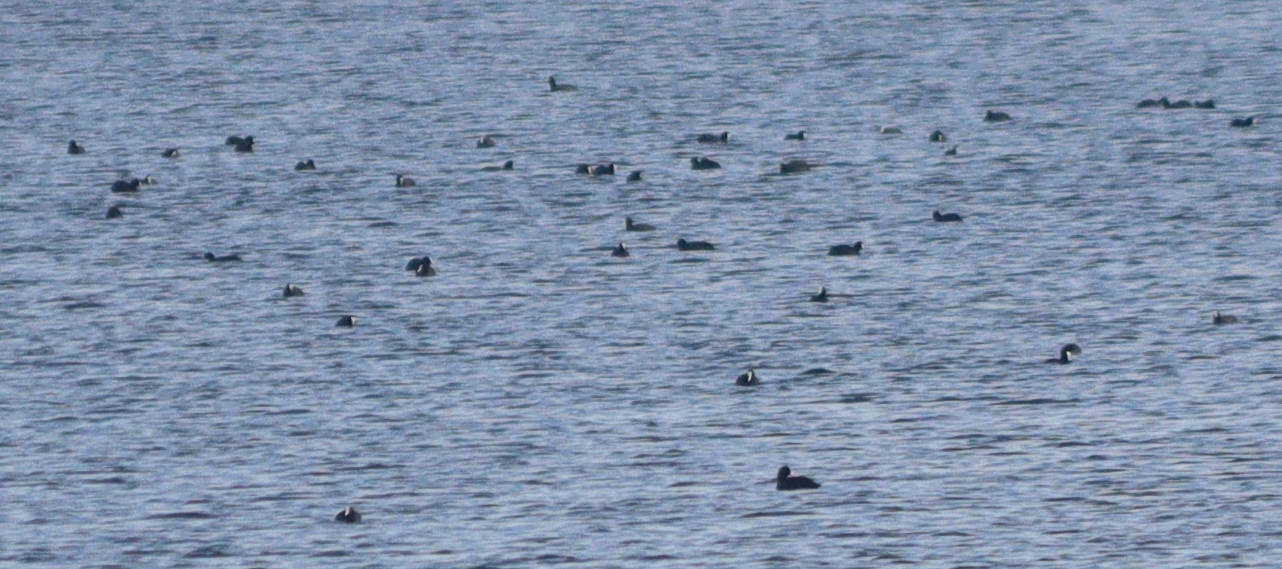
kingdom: Animalia
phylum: Chordata
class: Aves
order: Gruiformes
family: Rallidae
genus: Fulica
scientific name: Fulica atra
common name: Eurasian coot
